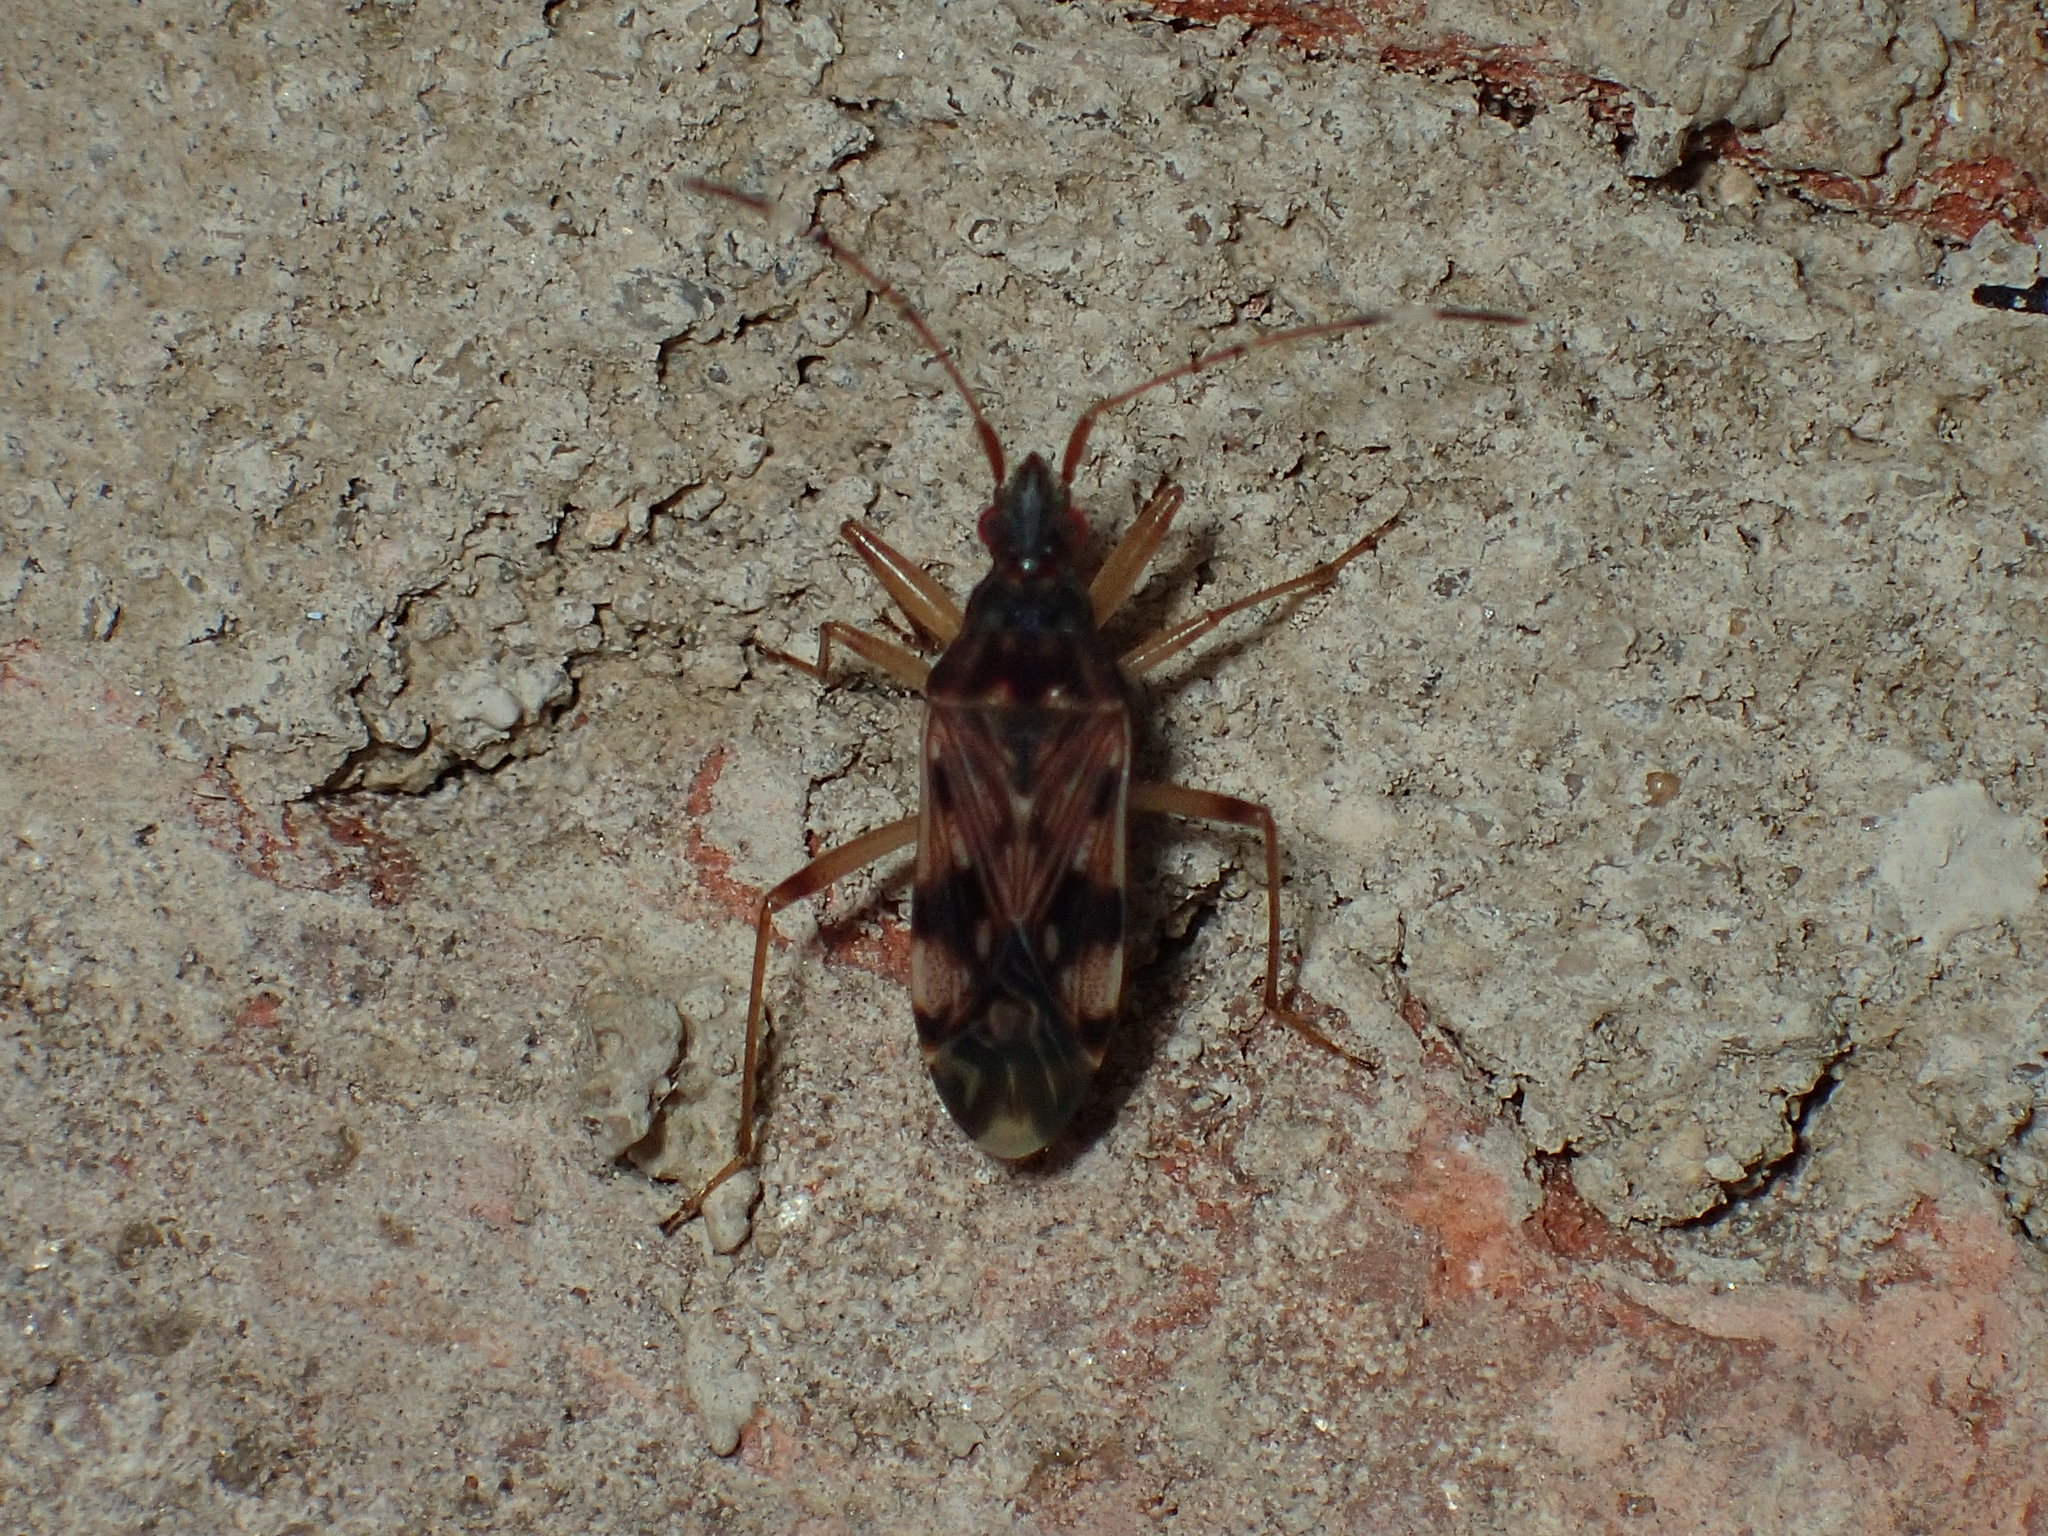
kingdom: Animalia
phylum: Arthropoda
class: Insecta
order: Hemiptera
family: Rhyparochromidae
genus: Ozophora
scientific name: Ozophora picturata
